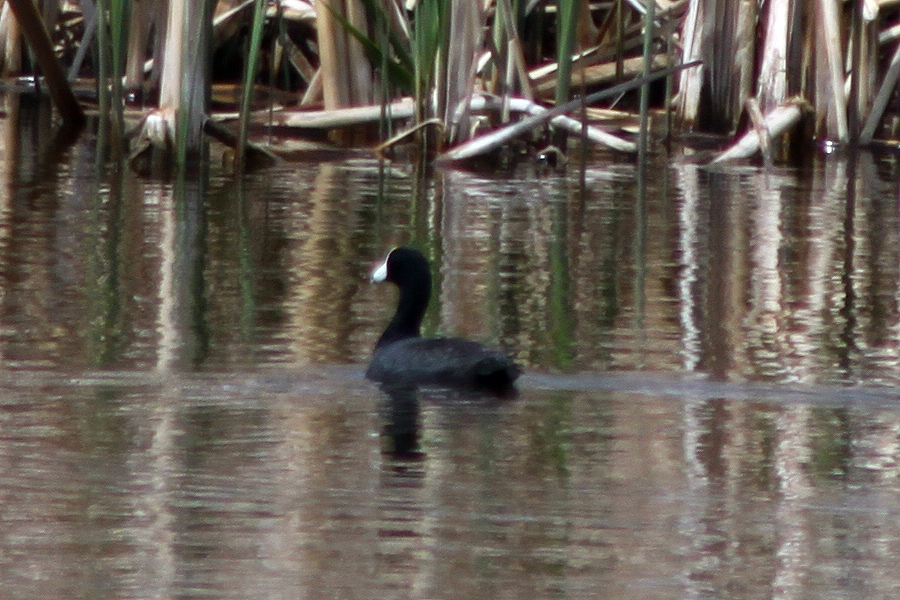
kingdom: Animalia
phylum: Chordata
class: Aves
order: Gruiformes
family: Rallidae
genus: Fulica
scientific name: Fulica americana
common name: American coot
